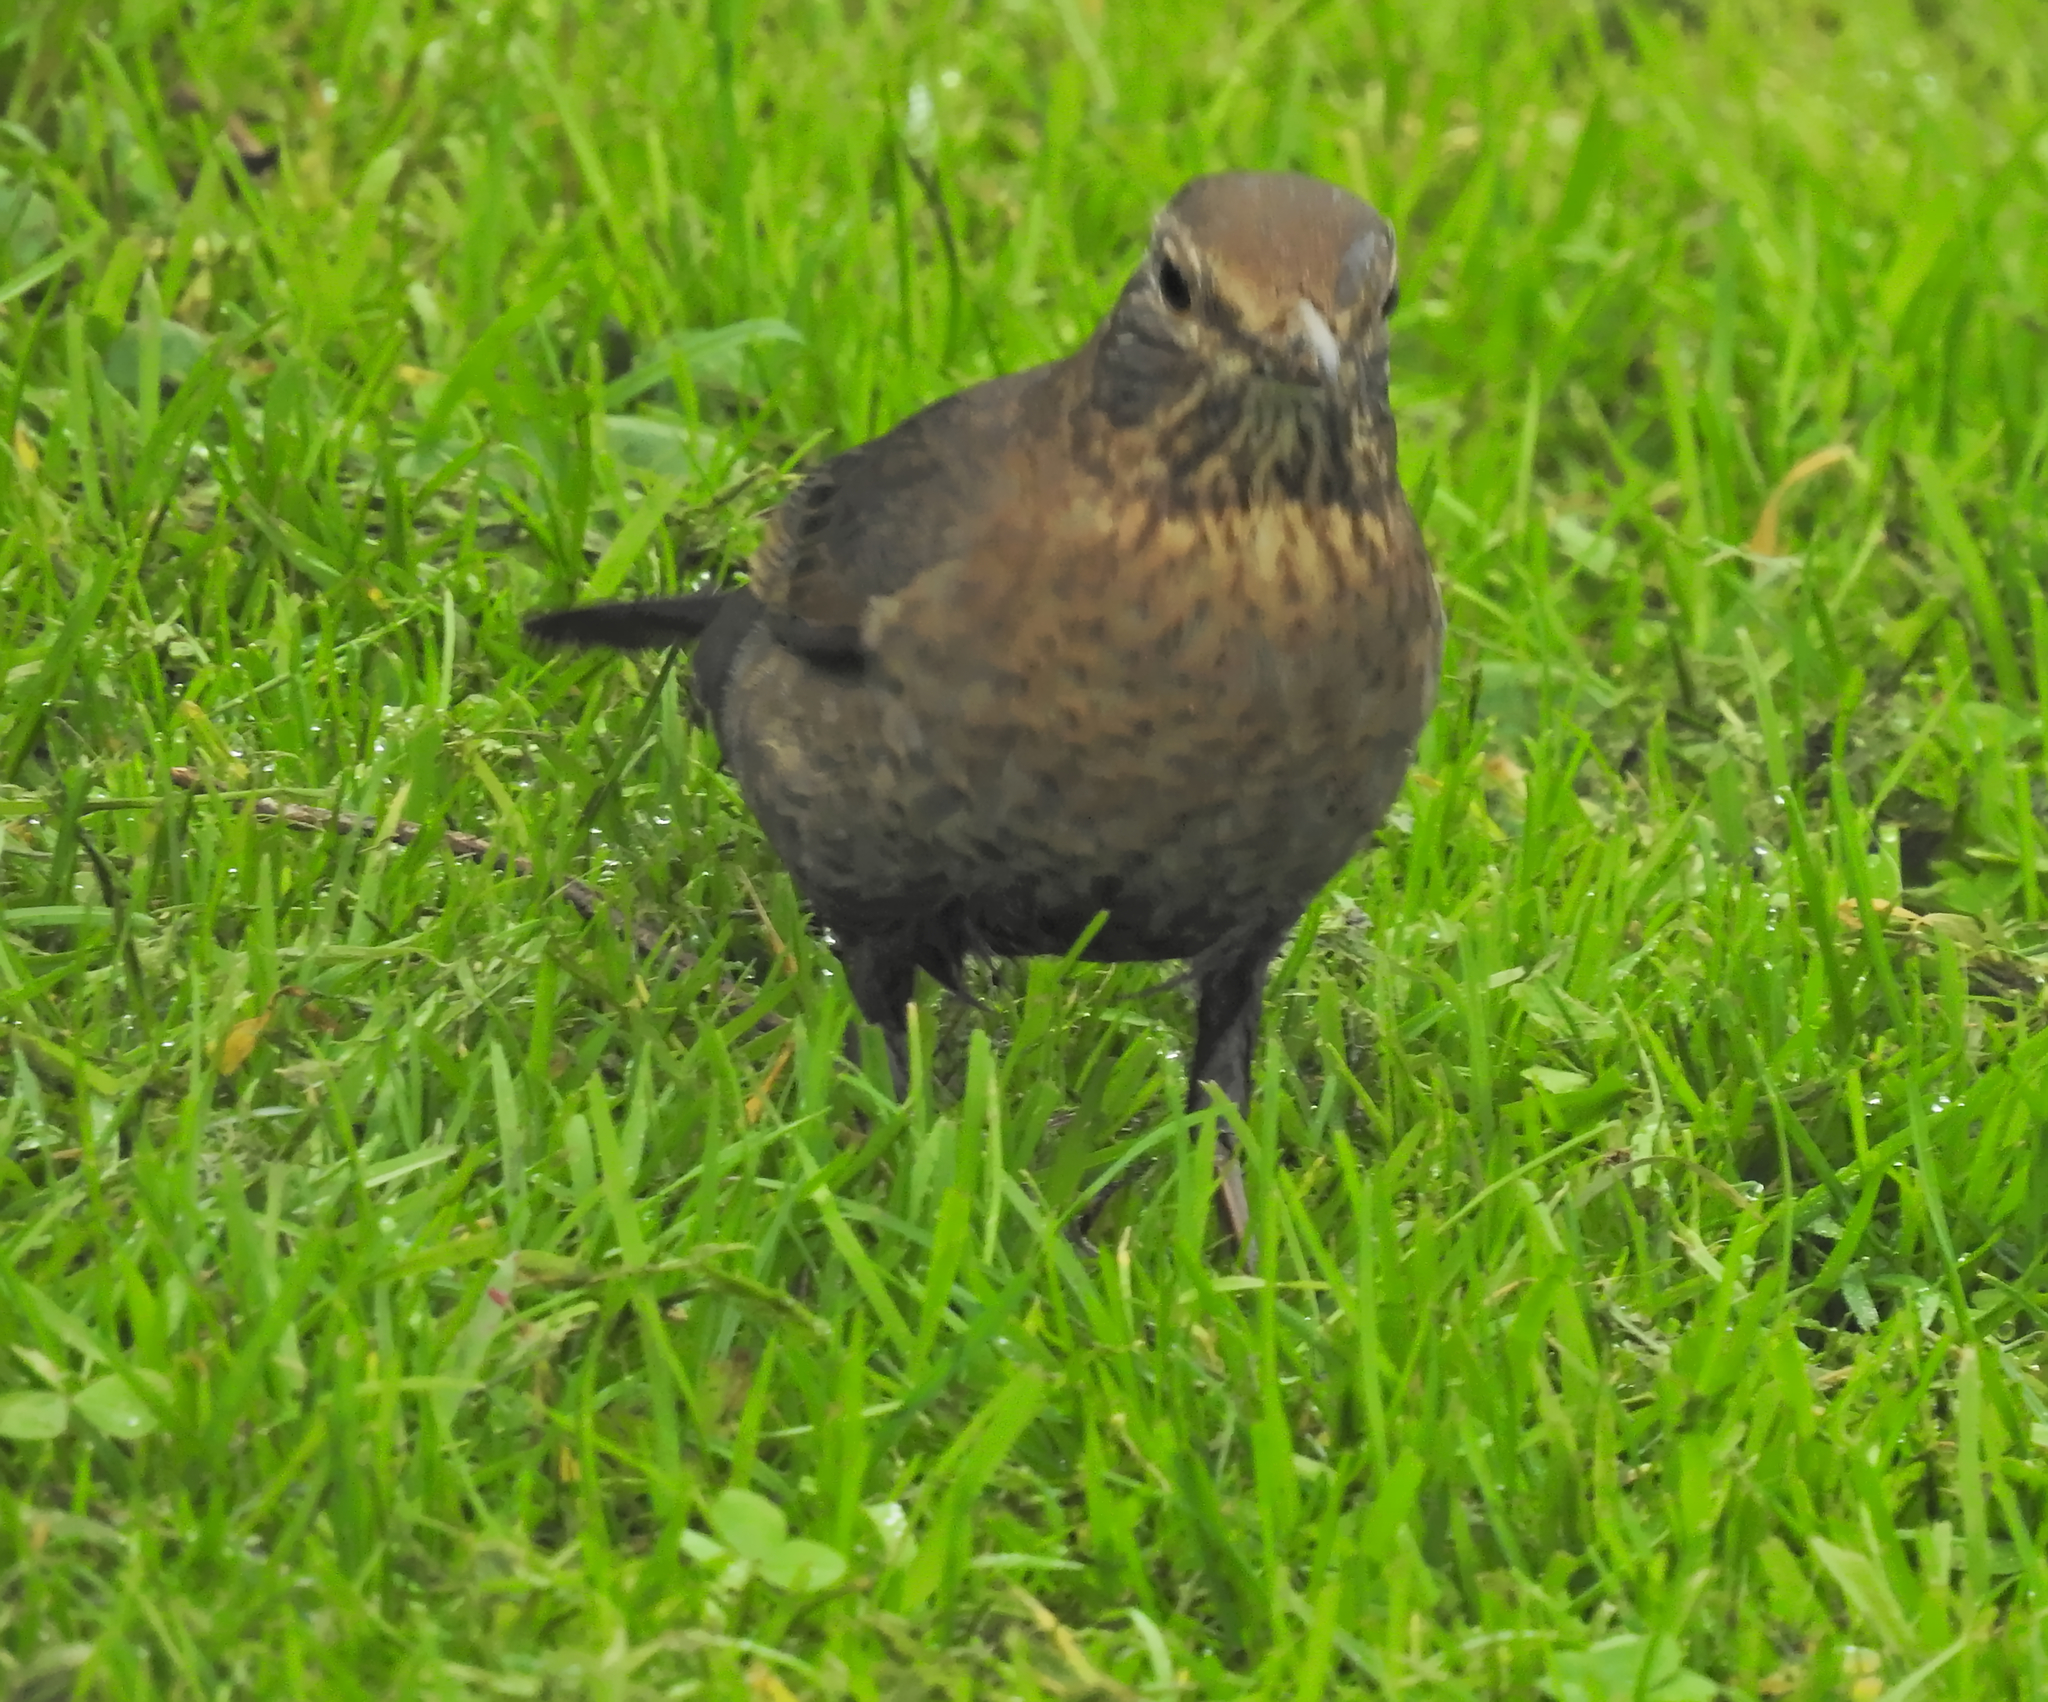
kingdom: Animalia
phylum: Chordata
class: Aves
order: Passeriformes
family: Turdidae
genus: Turdus
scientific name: Turdus merula
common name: Common blackbird
